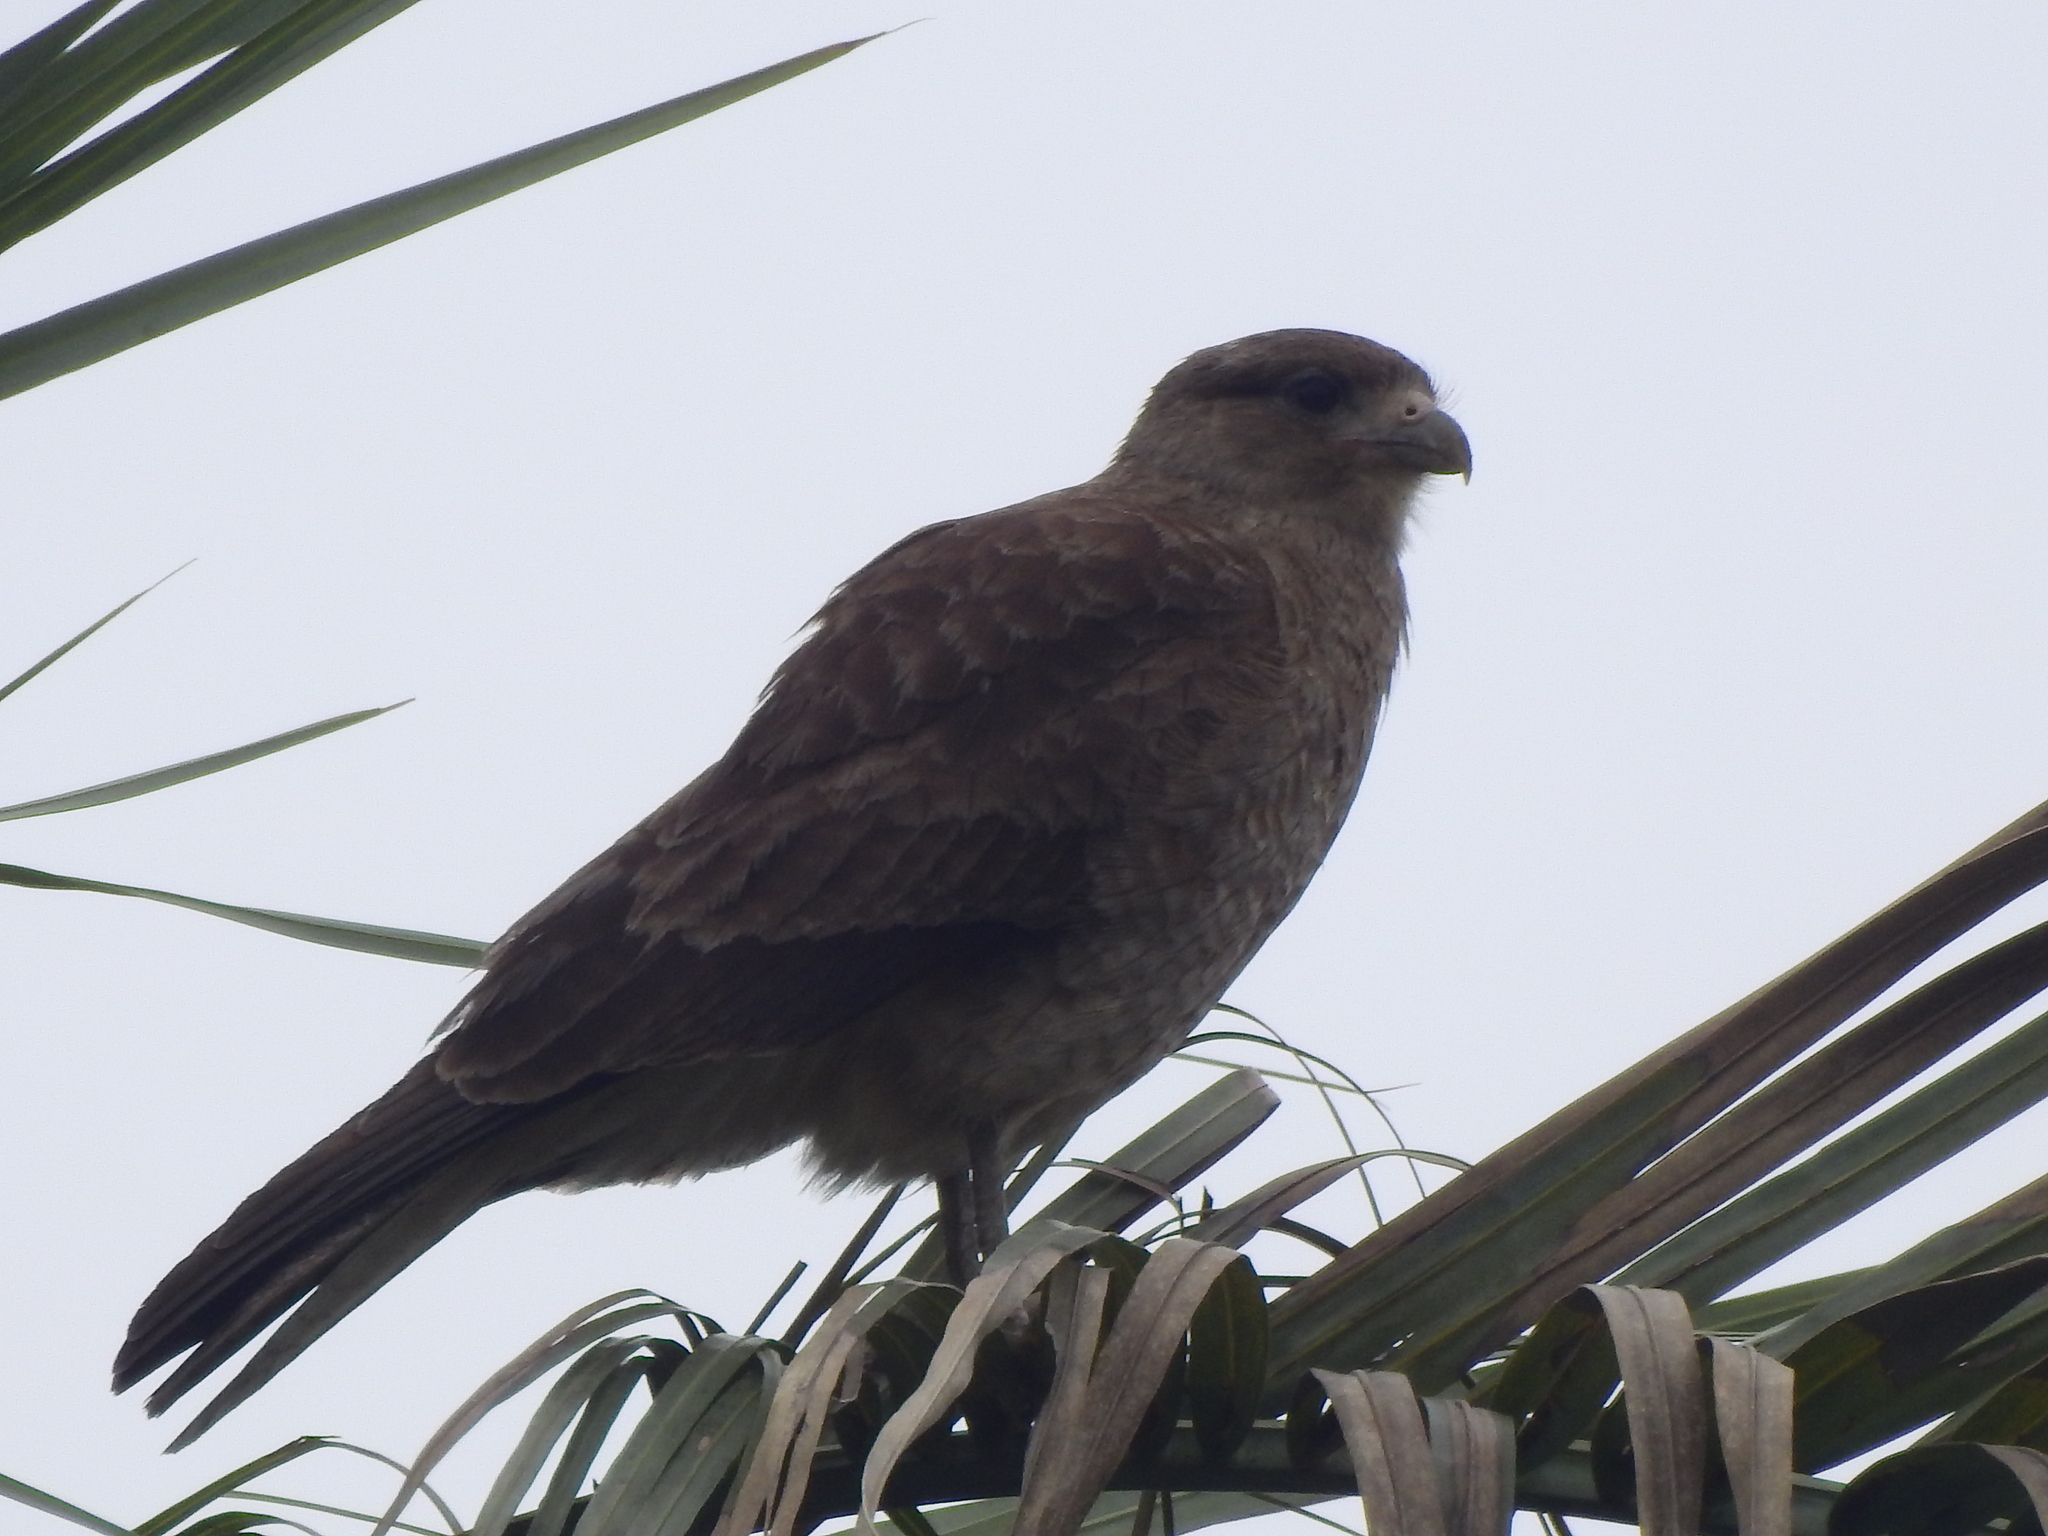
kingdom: Animalia
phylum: Chordata
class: Aves
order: Falconiformes
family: Falconidae
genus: Daptrius
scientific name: Daptrius
